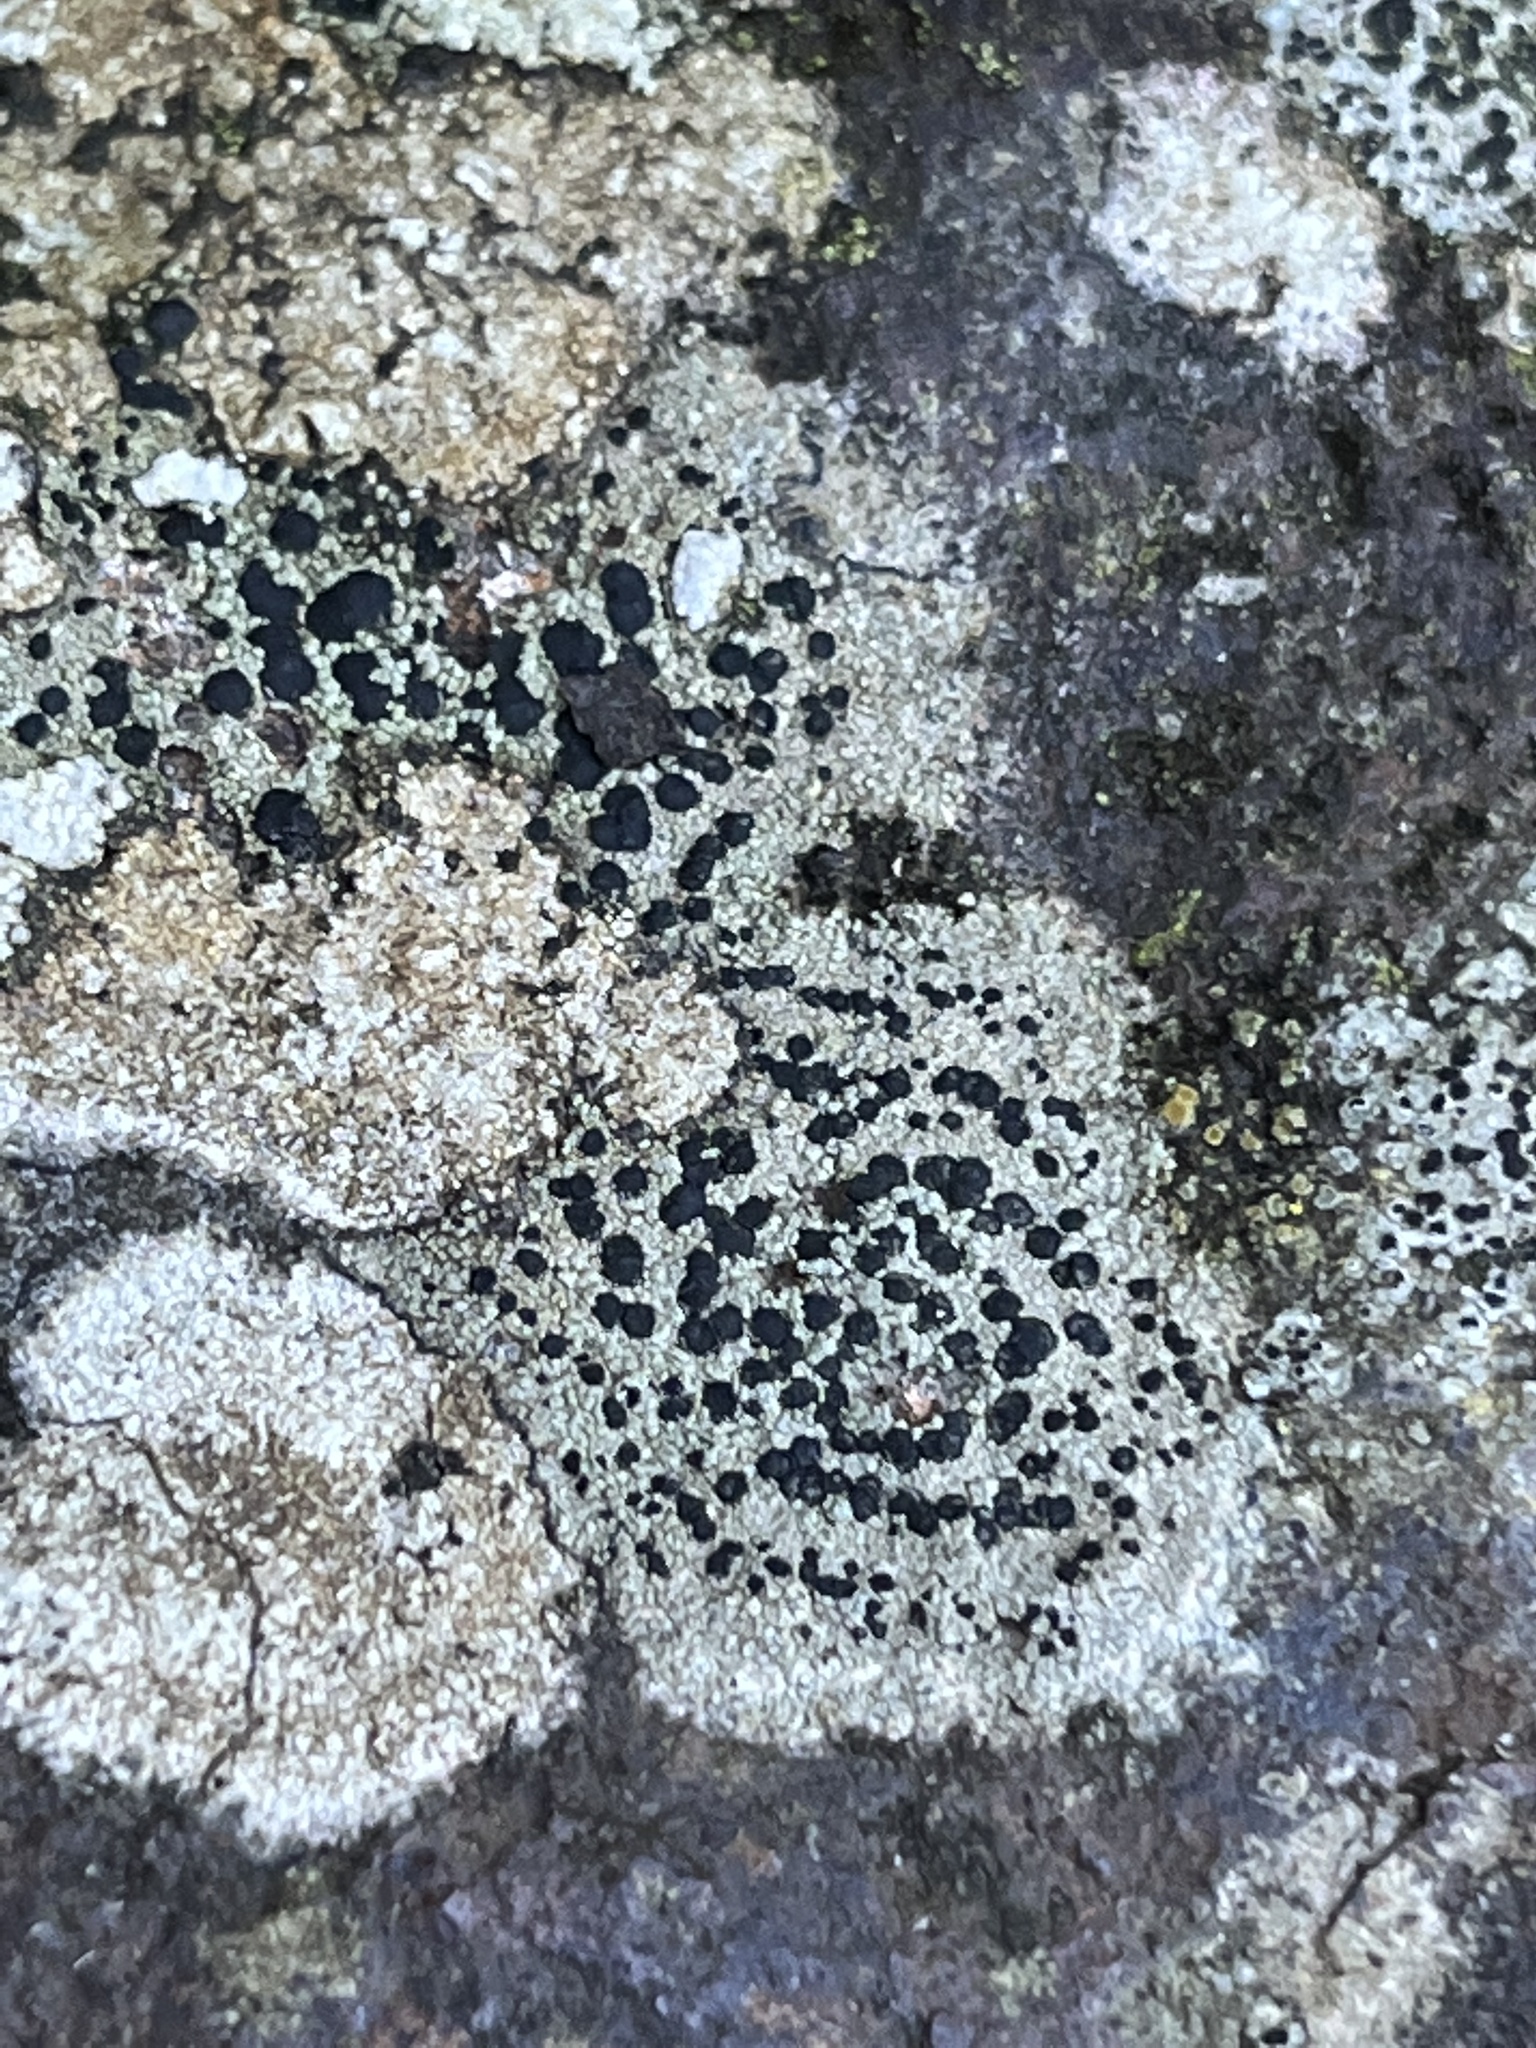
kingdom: Fungi
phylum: Ascomycota
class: Lecanoromycetes
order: Lecideales
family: Lecideaceae
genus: Porpidia
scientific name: Porpidia crustulata
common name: Concentric boulder lichen
